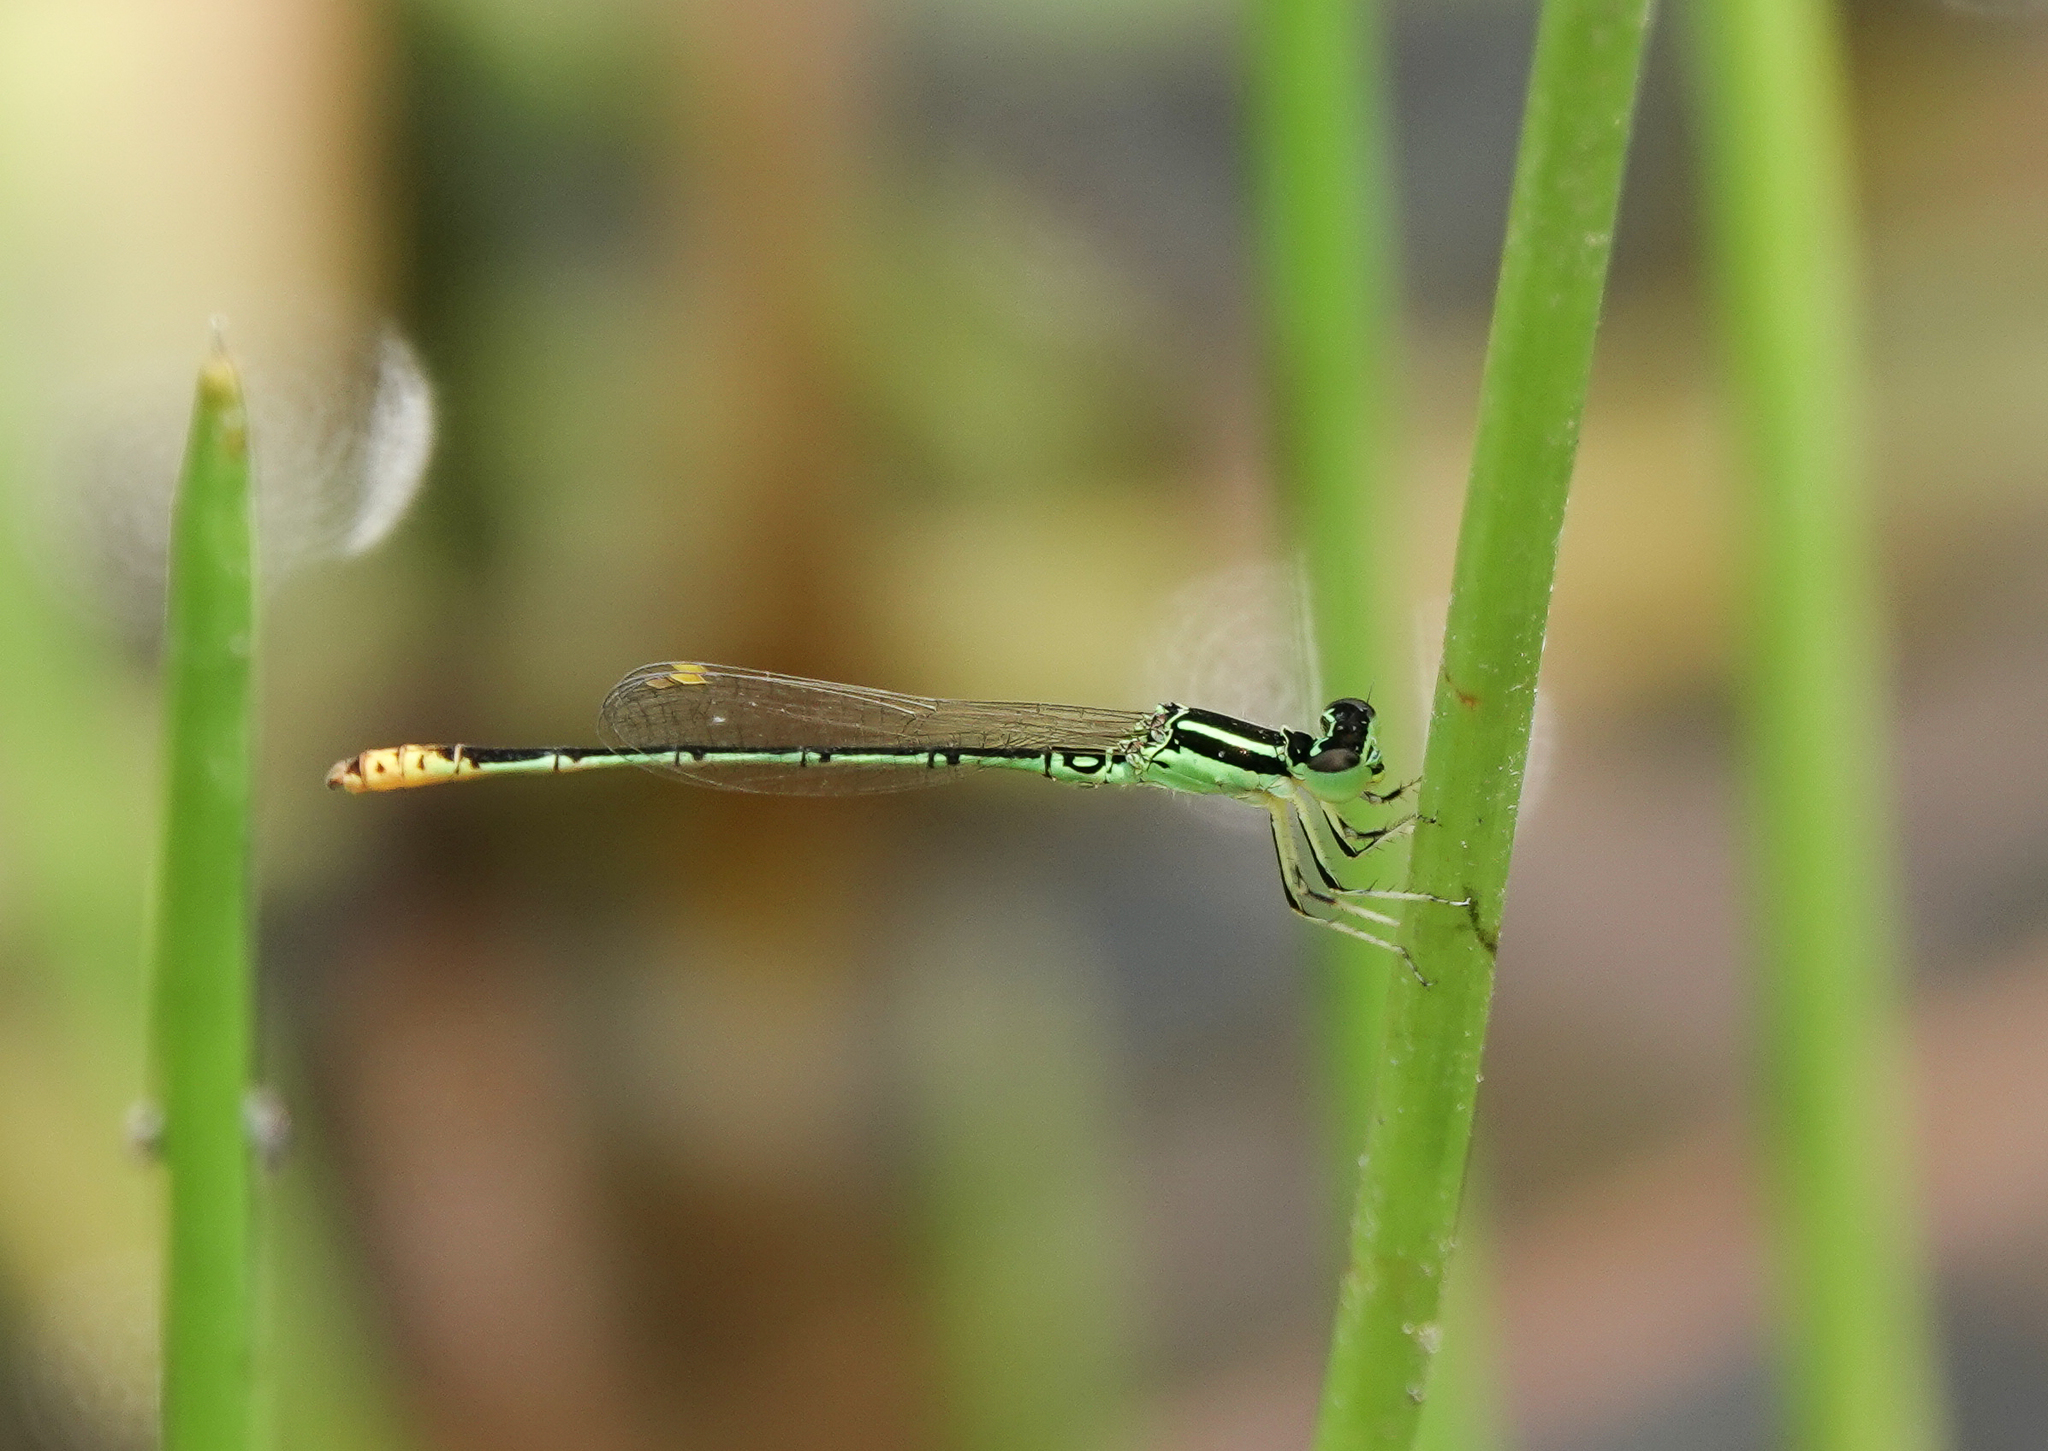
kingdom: Animalia
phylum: Arthropoda
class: Insecta
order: Odonata
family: Coenagrionidae
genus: Agriocnemis
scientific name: Agriocnemis kalinga
